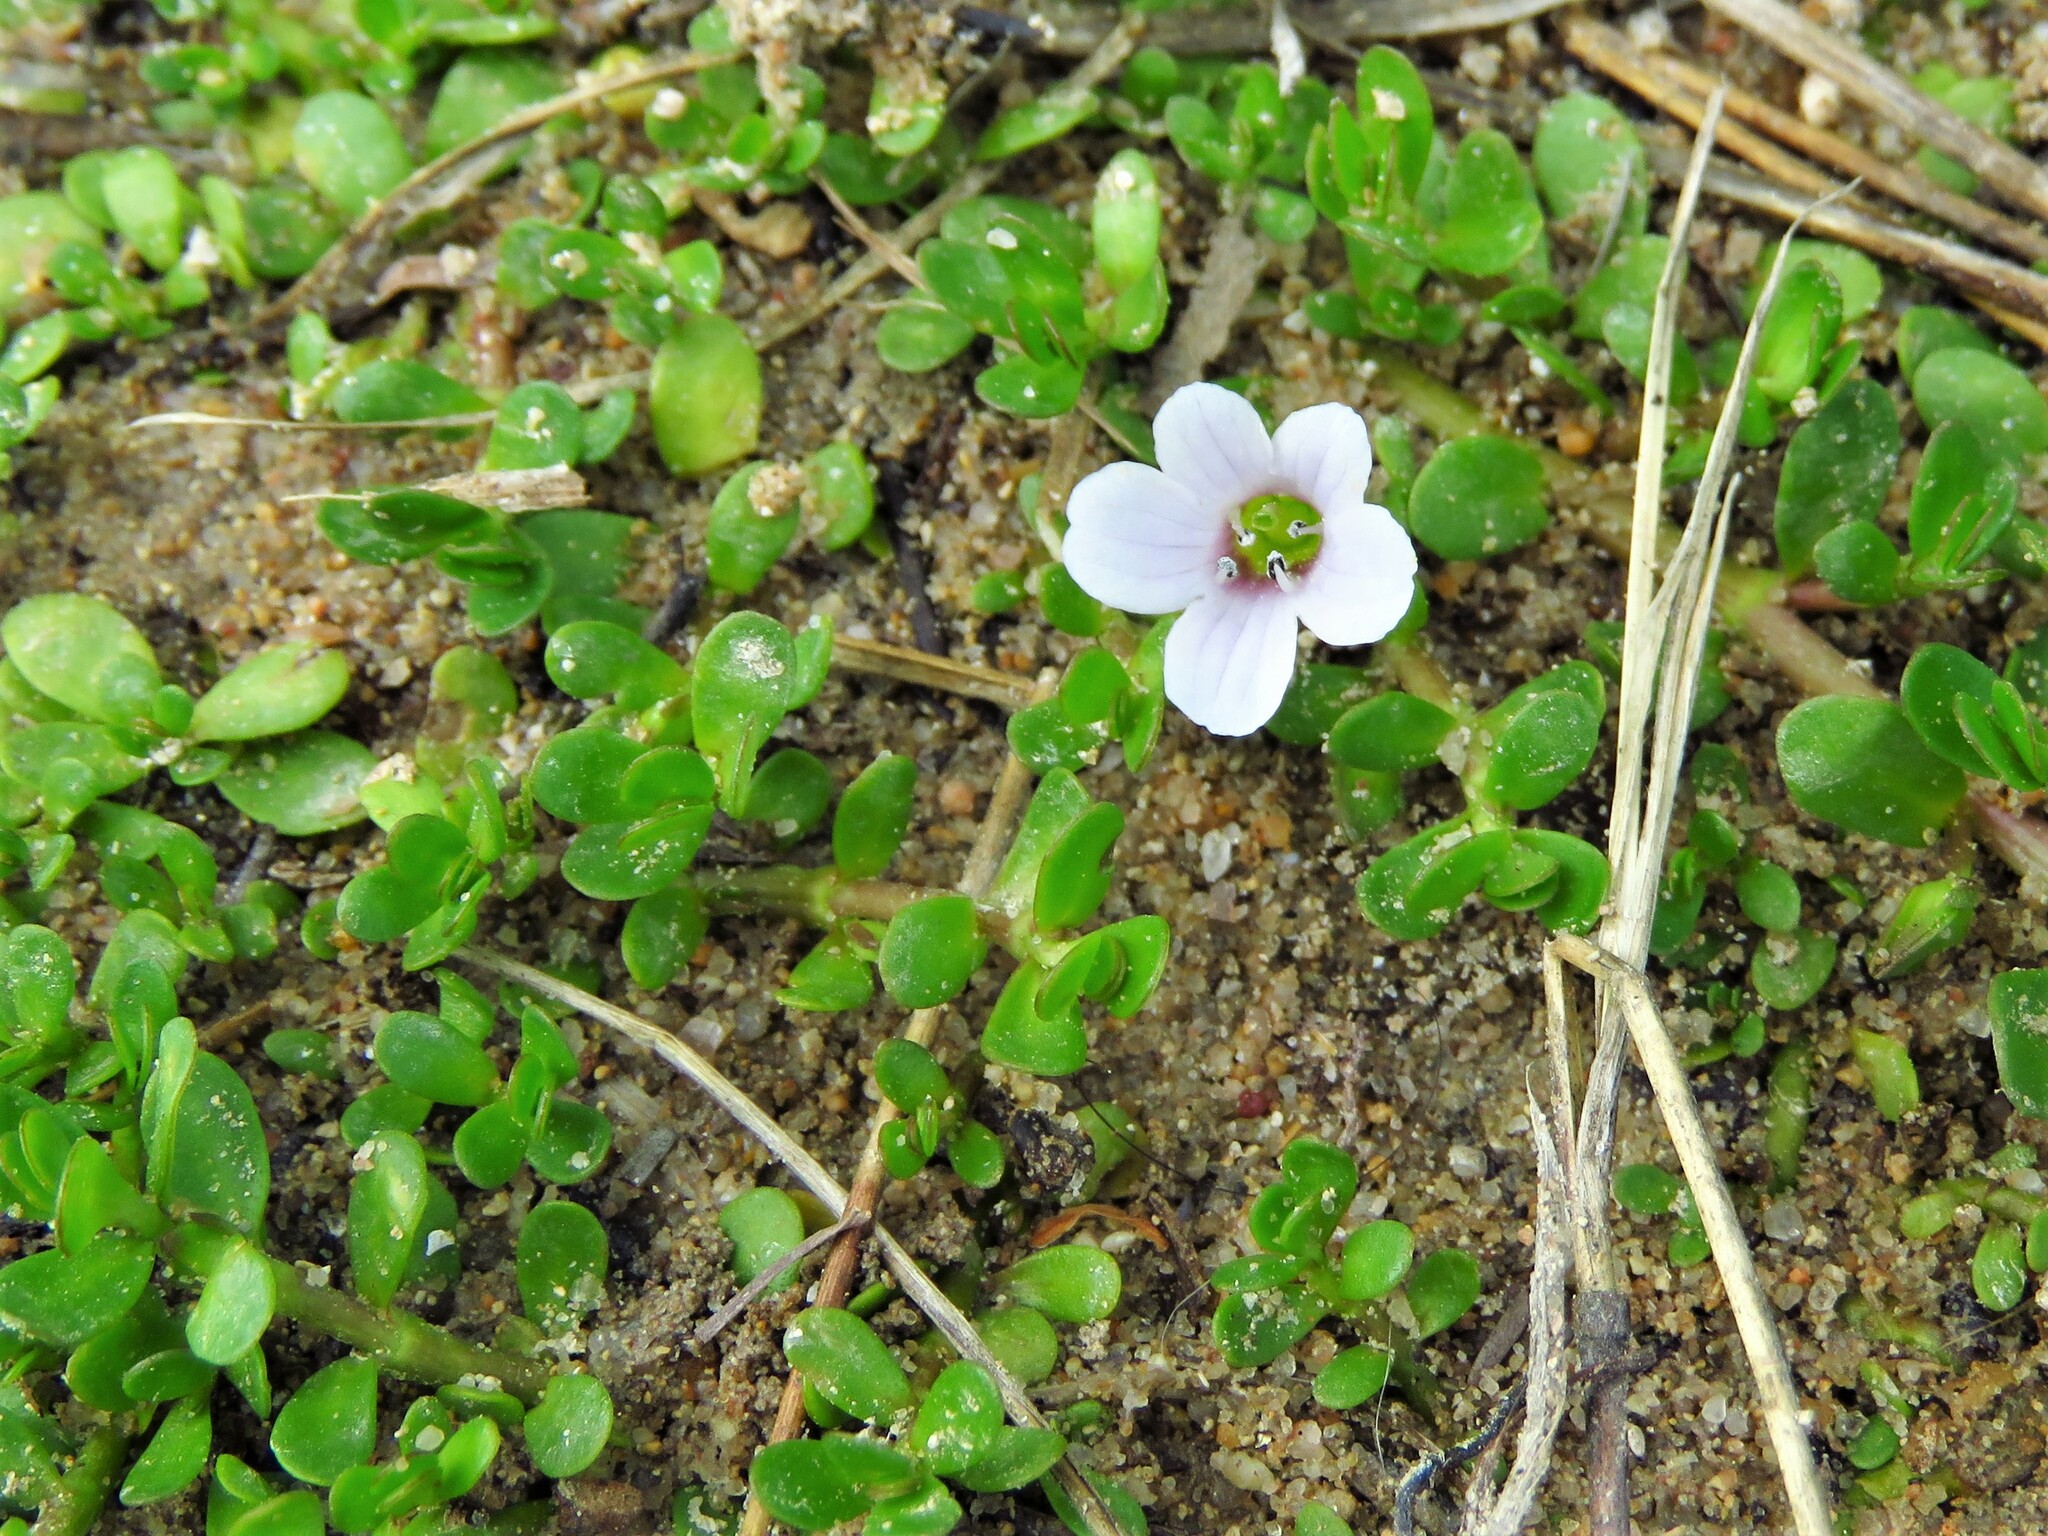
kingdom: Plantae
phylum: Tracheophyta
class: Magnoliopsida
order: Lamiales
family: Plantaginaceae
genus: Bacopa
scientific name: Bacopa monnieri
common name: Indian-pennywort
